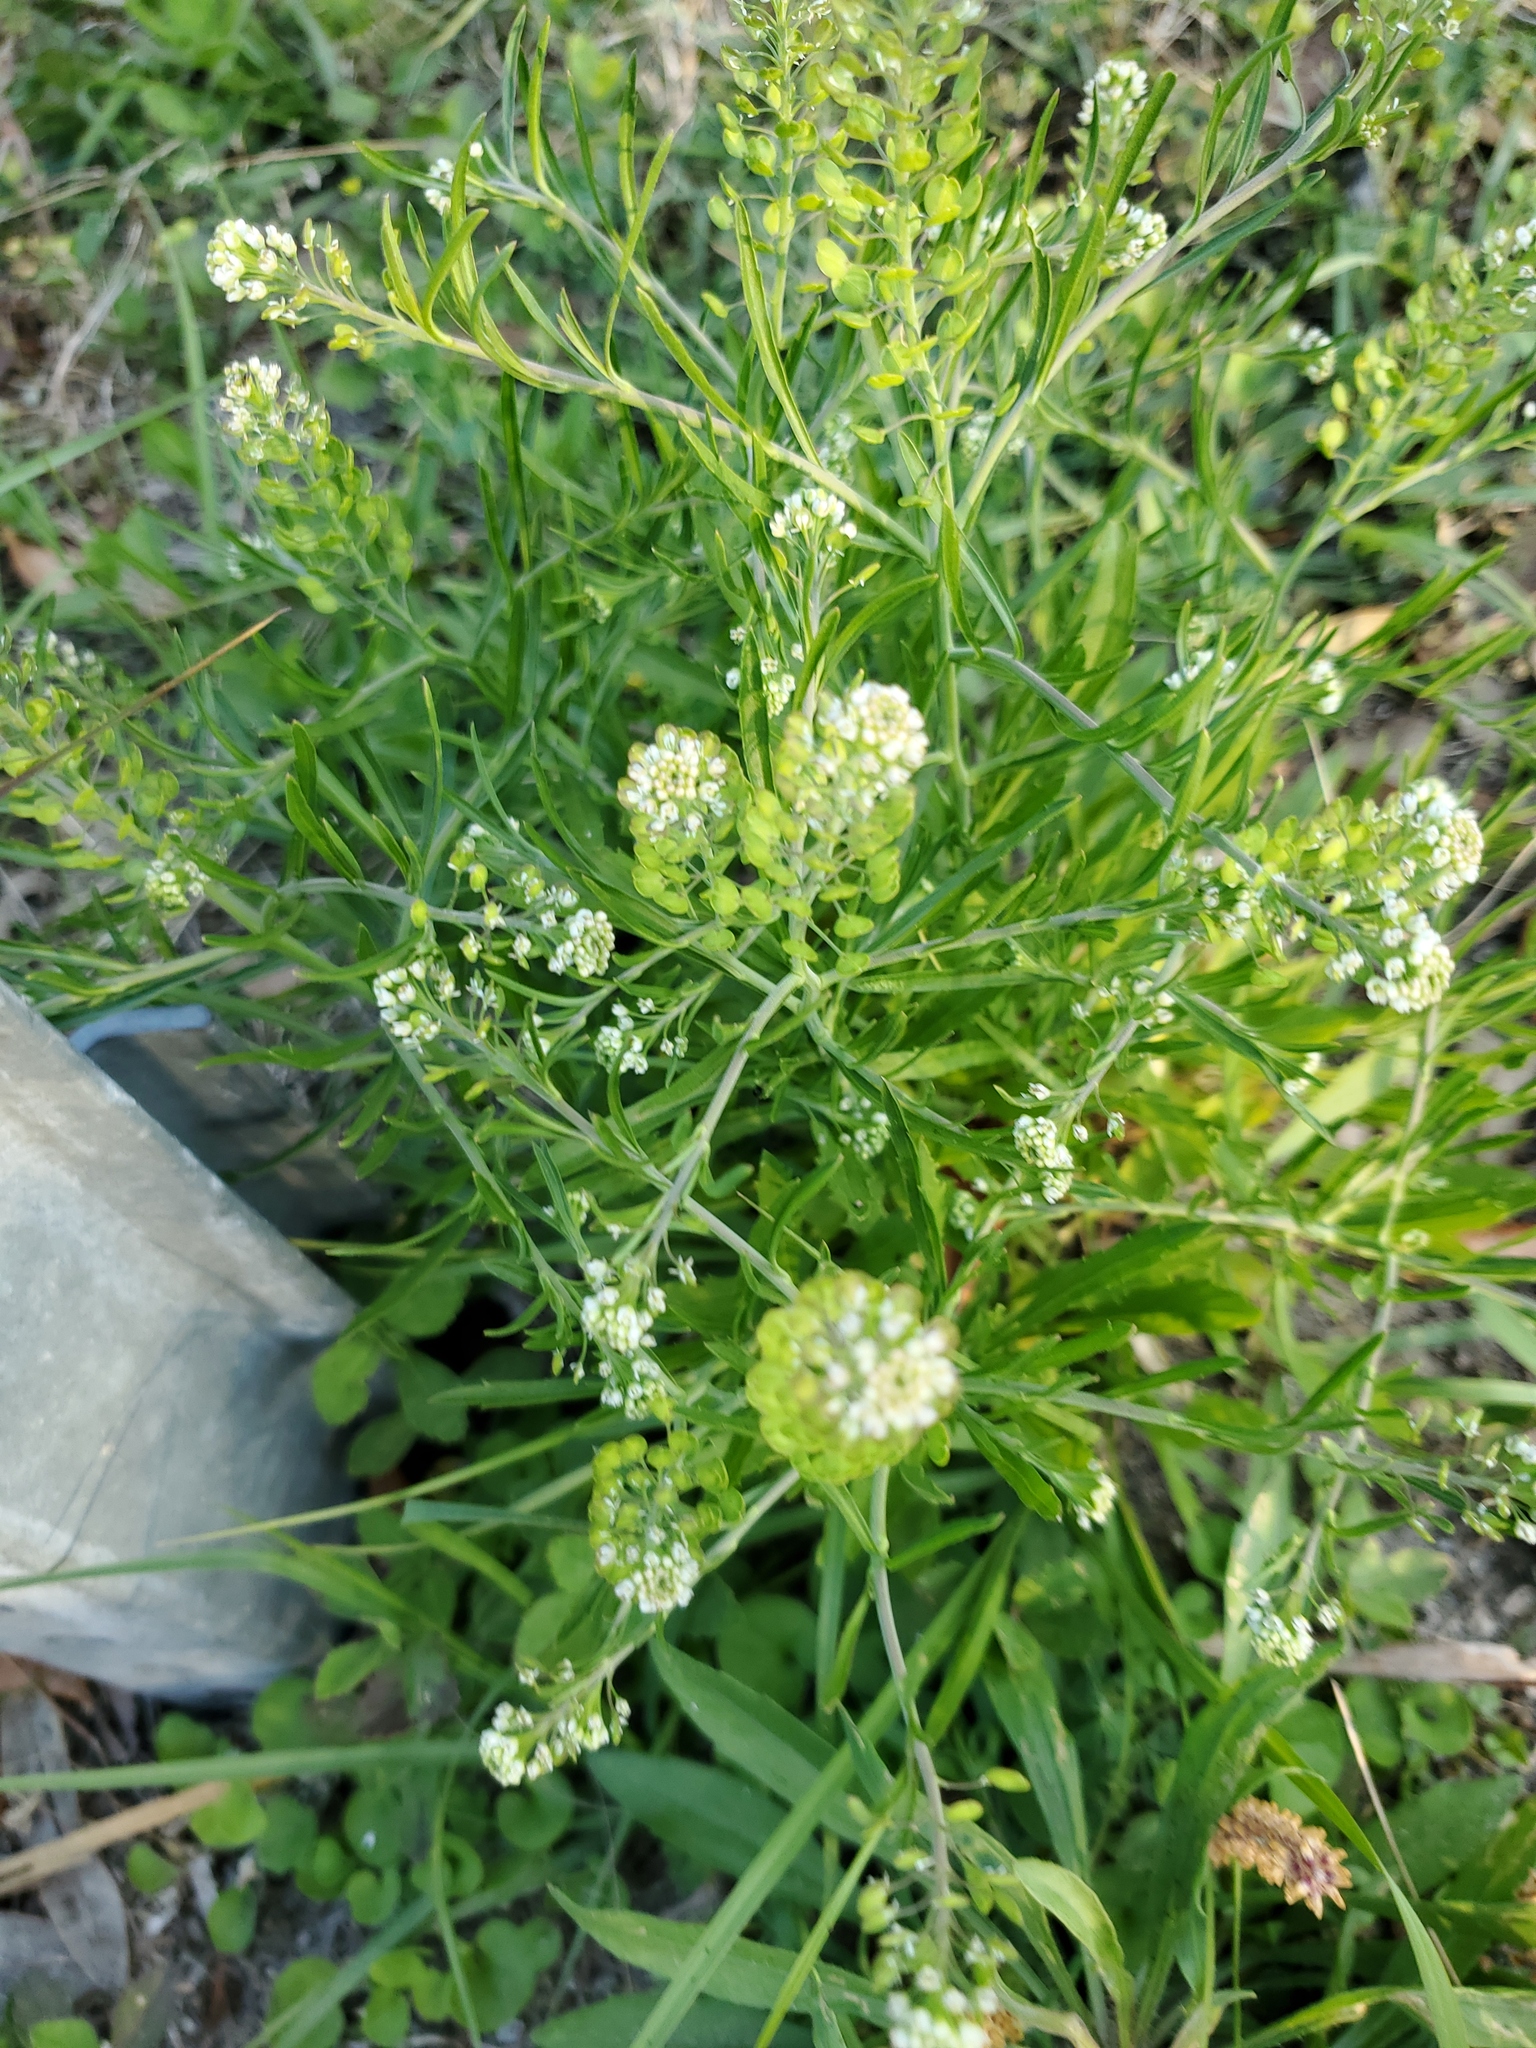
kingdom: Plantae
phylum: Tracheophyta
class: Magnoliopsida
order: Brassicales
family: Brassicaceae
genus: Lepidium
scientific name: Lepidium virginicum
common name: Least pepperwort
